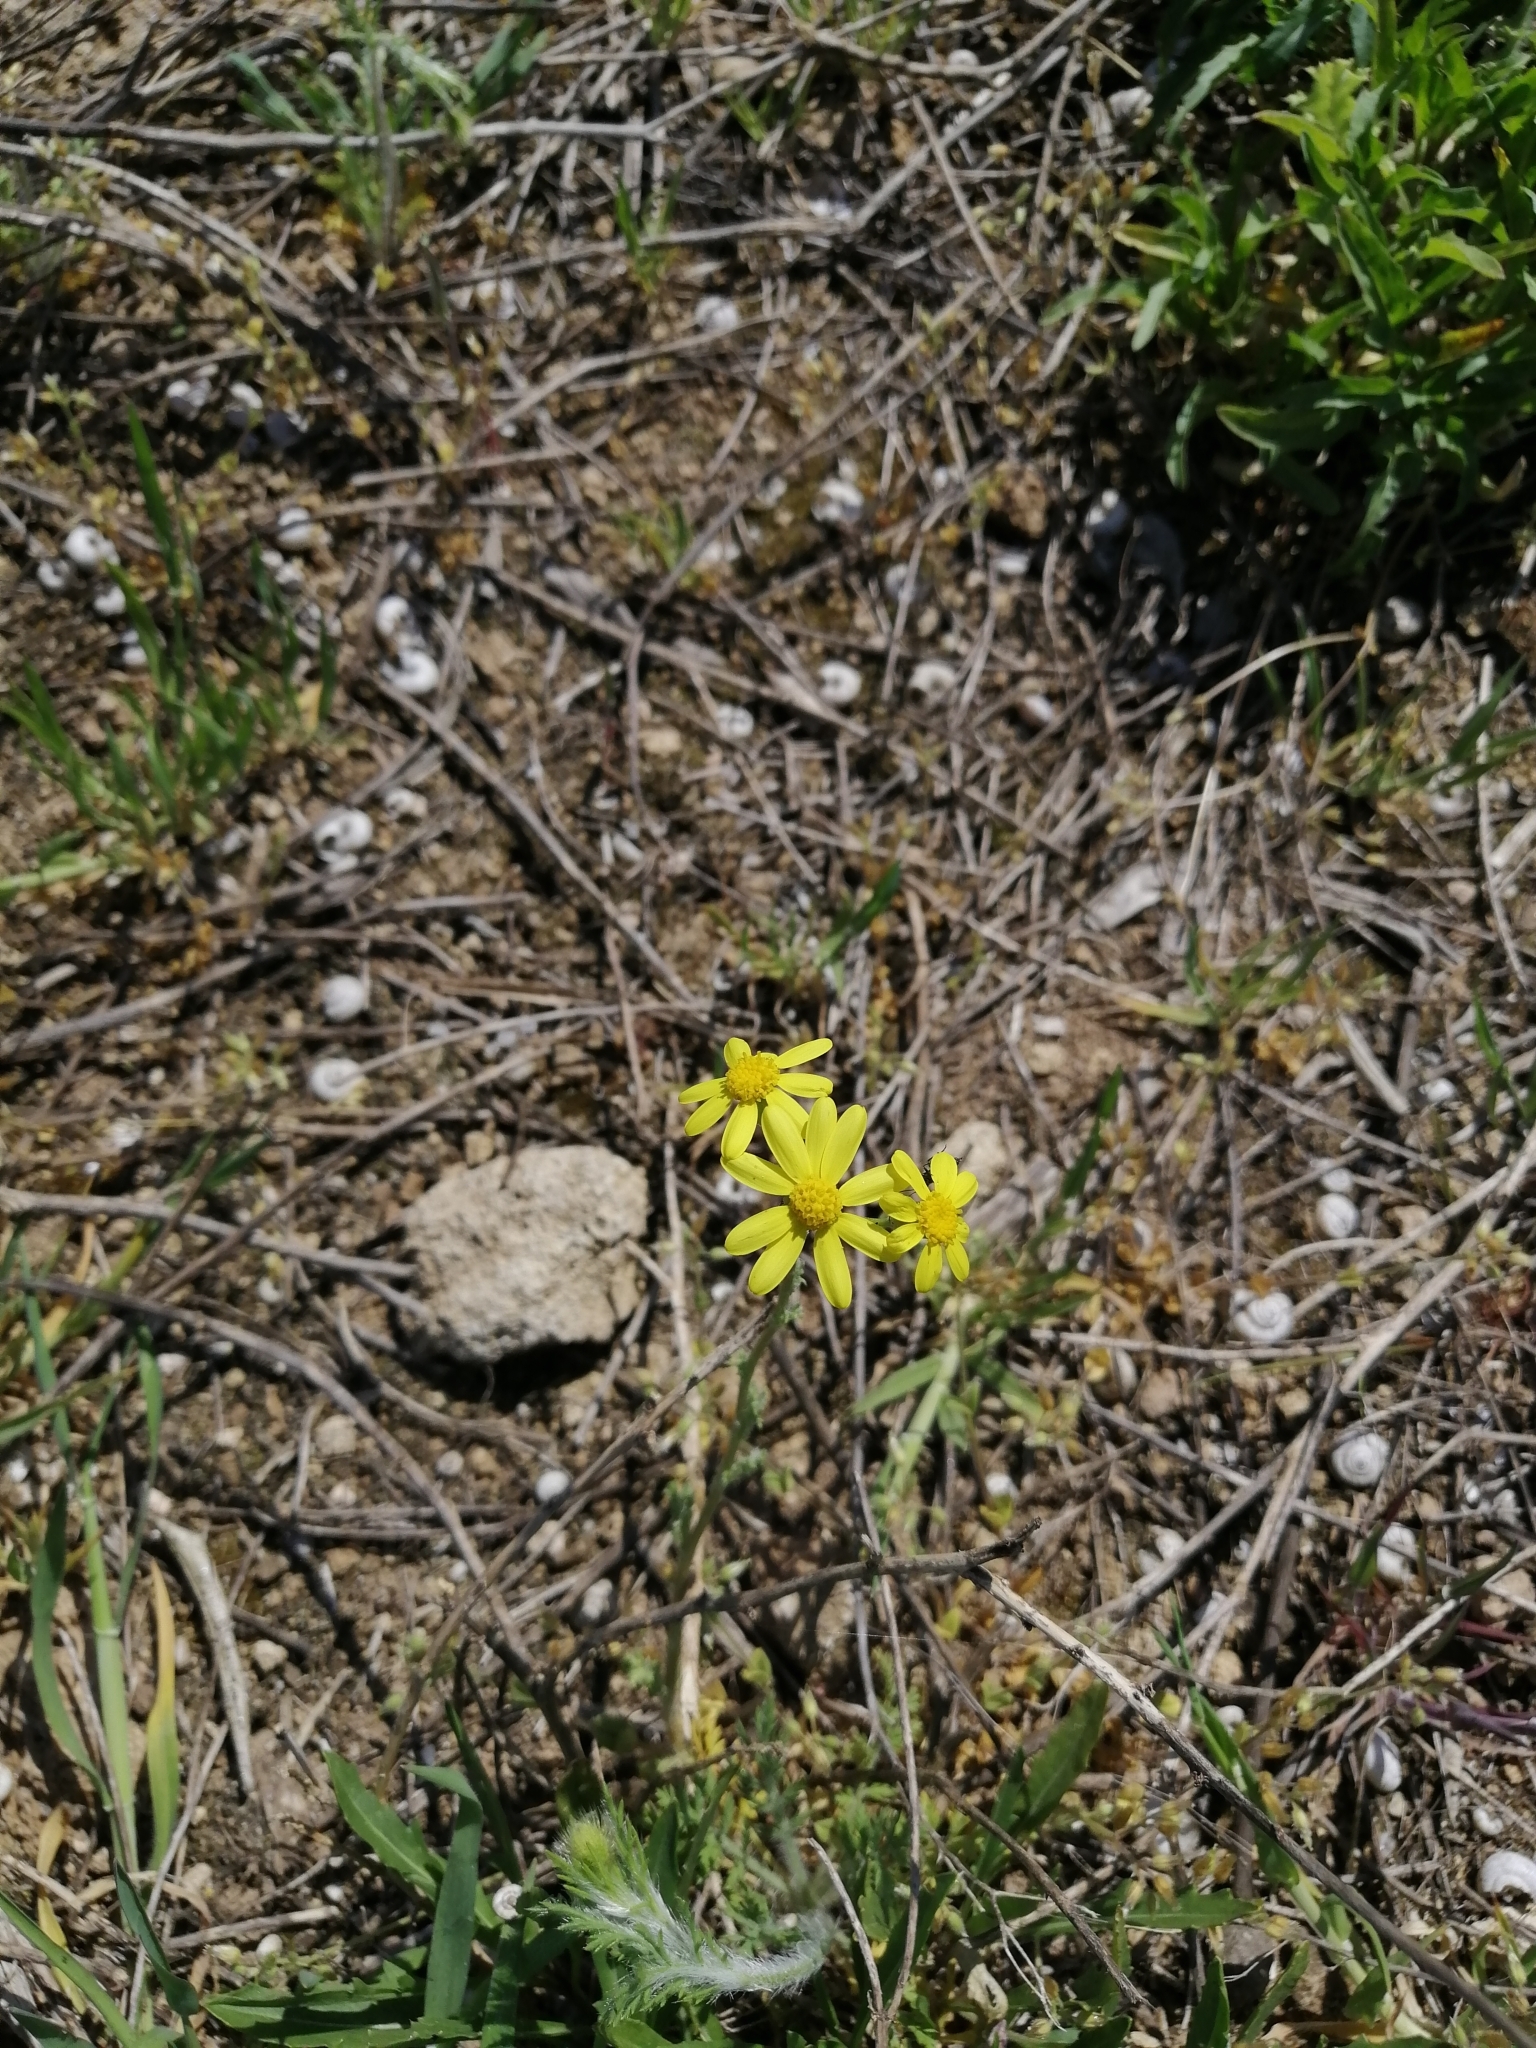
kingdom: Plantae
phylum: Tracheophyta
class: Magnoliopsida
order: Asterales
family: Asteraceae
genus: Senecio
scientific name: Senecio vernalis
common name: Eastern groundsel
